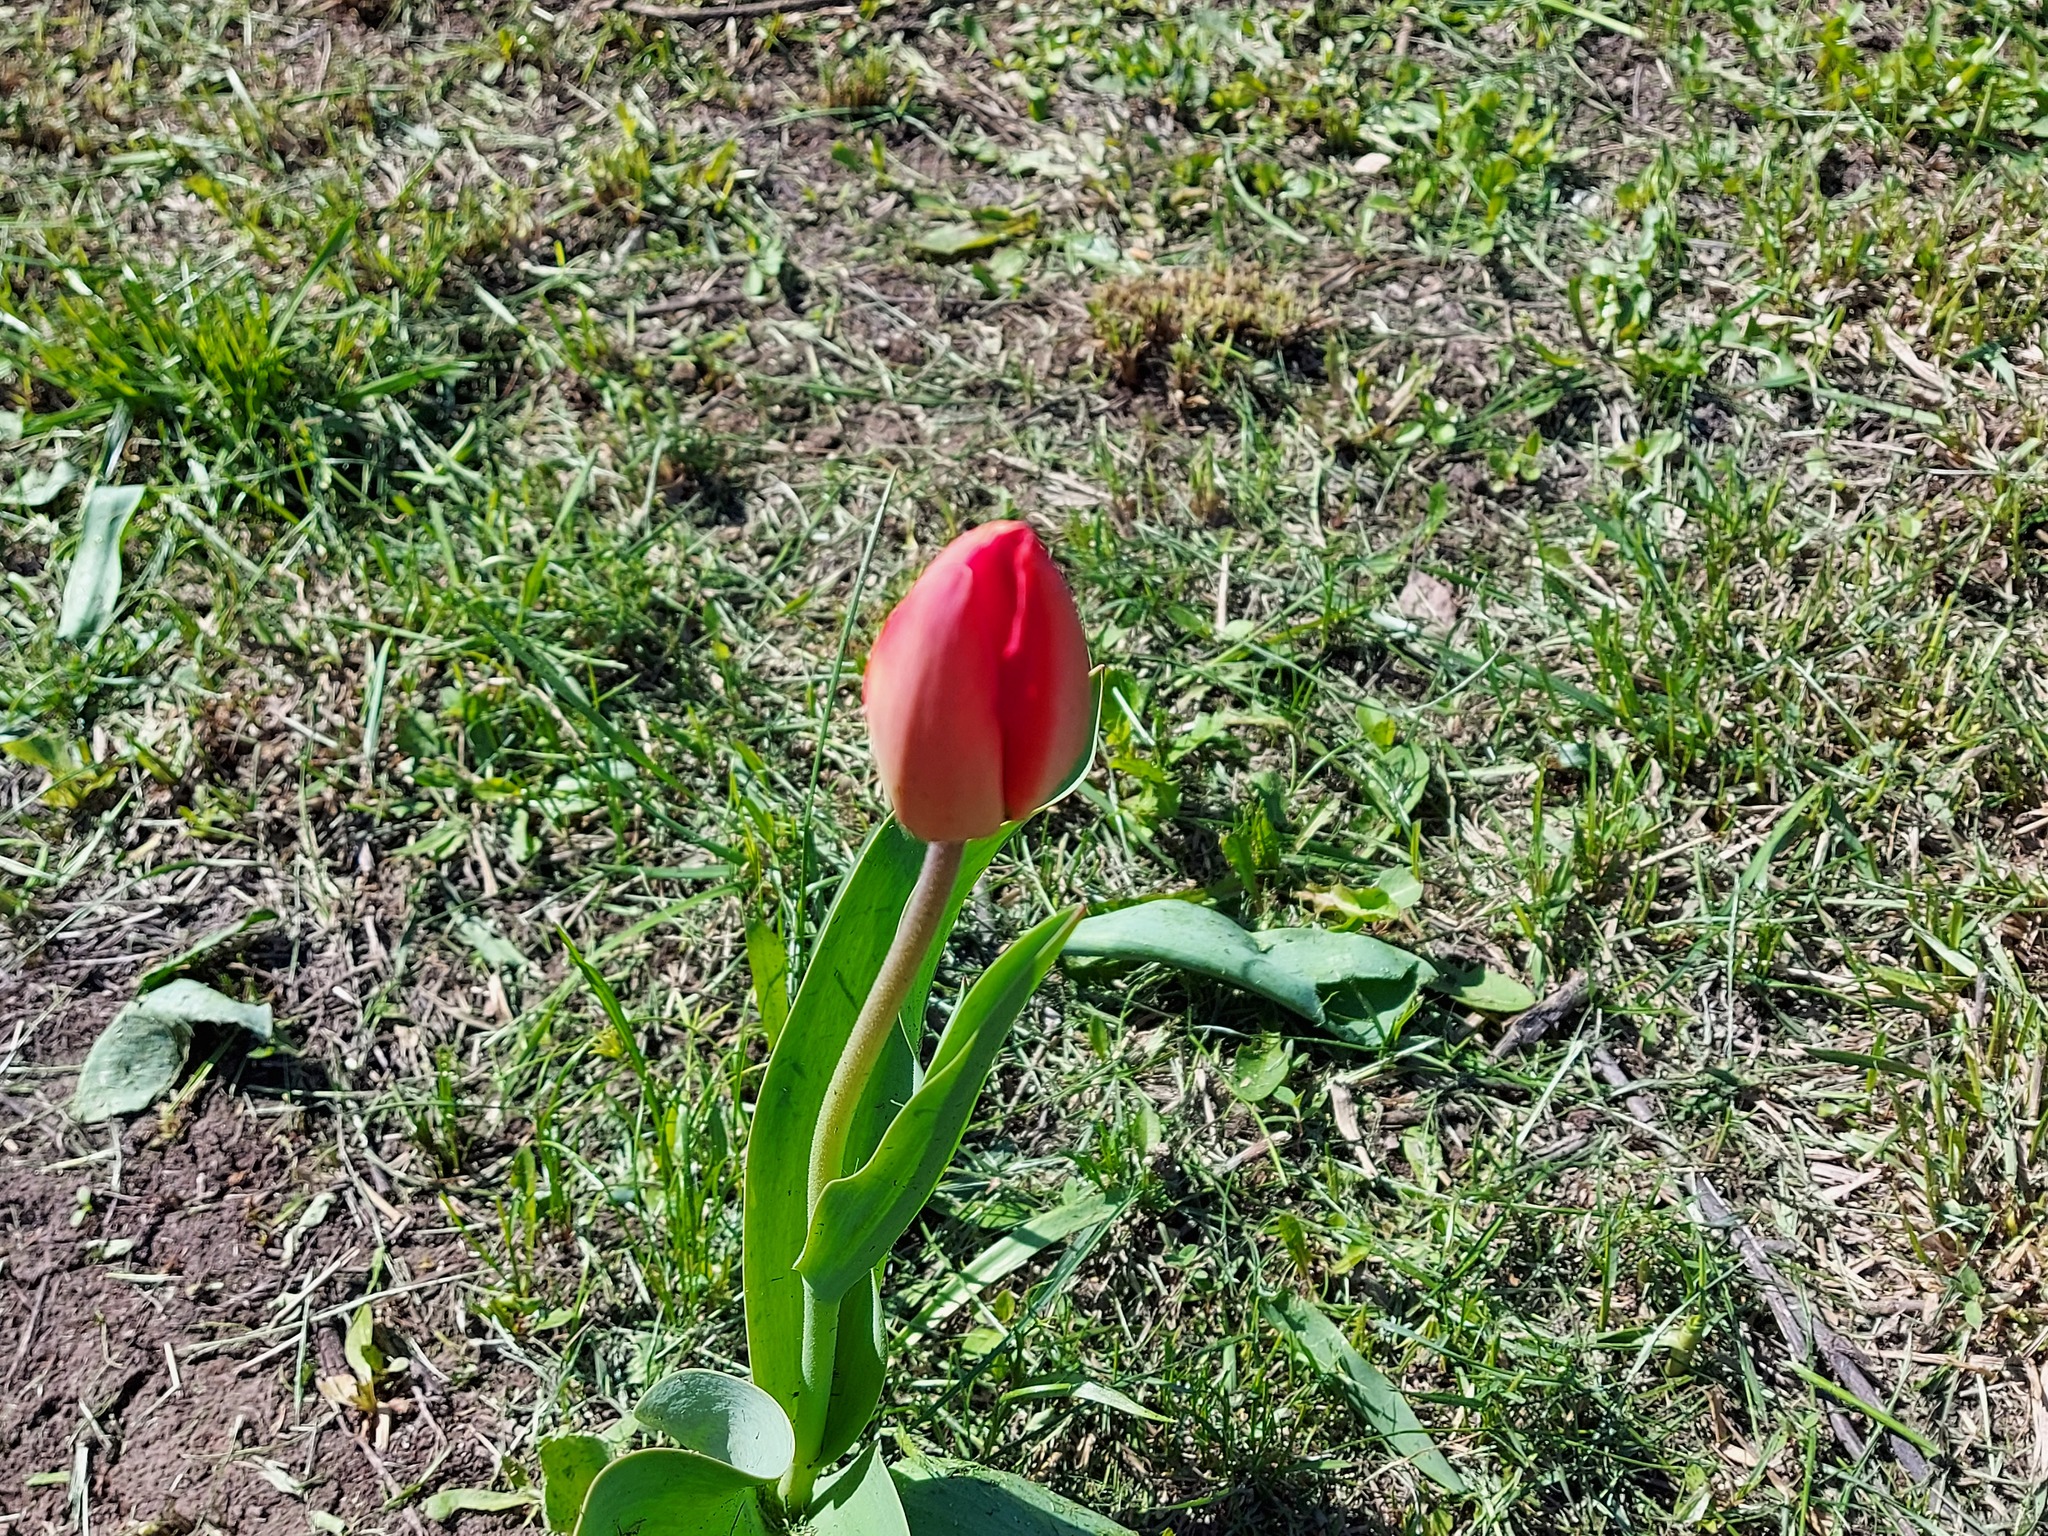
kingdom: Plantae
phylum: Tracheophyta
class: Liliopsida
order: Liliales
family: Liliaceae
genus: Tulipa
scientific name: Tulipa gesneriana
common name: Garden tulip
